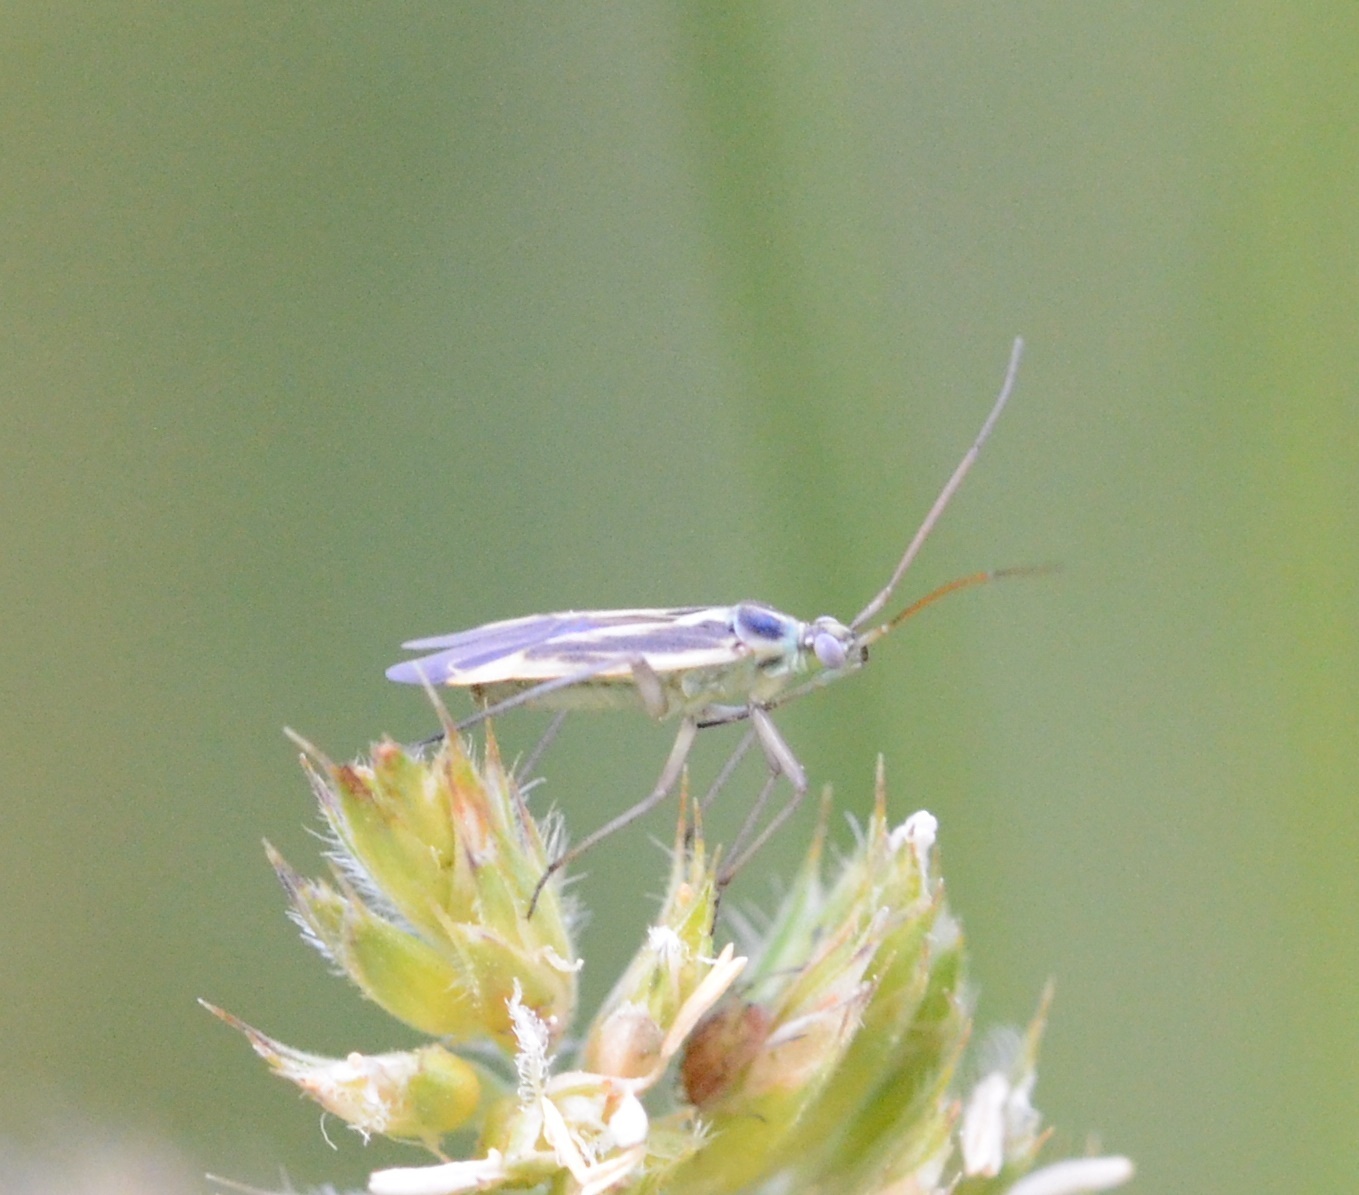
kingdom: Animalia
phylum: Arthropoda
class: Insecta
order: Hemiptera
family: Miridae
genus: Stenotus
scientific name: Stenotus binotatus
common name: Plant bug
